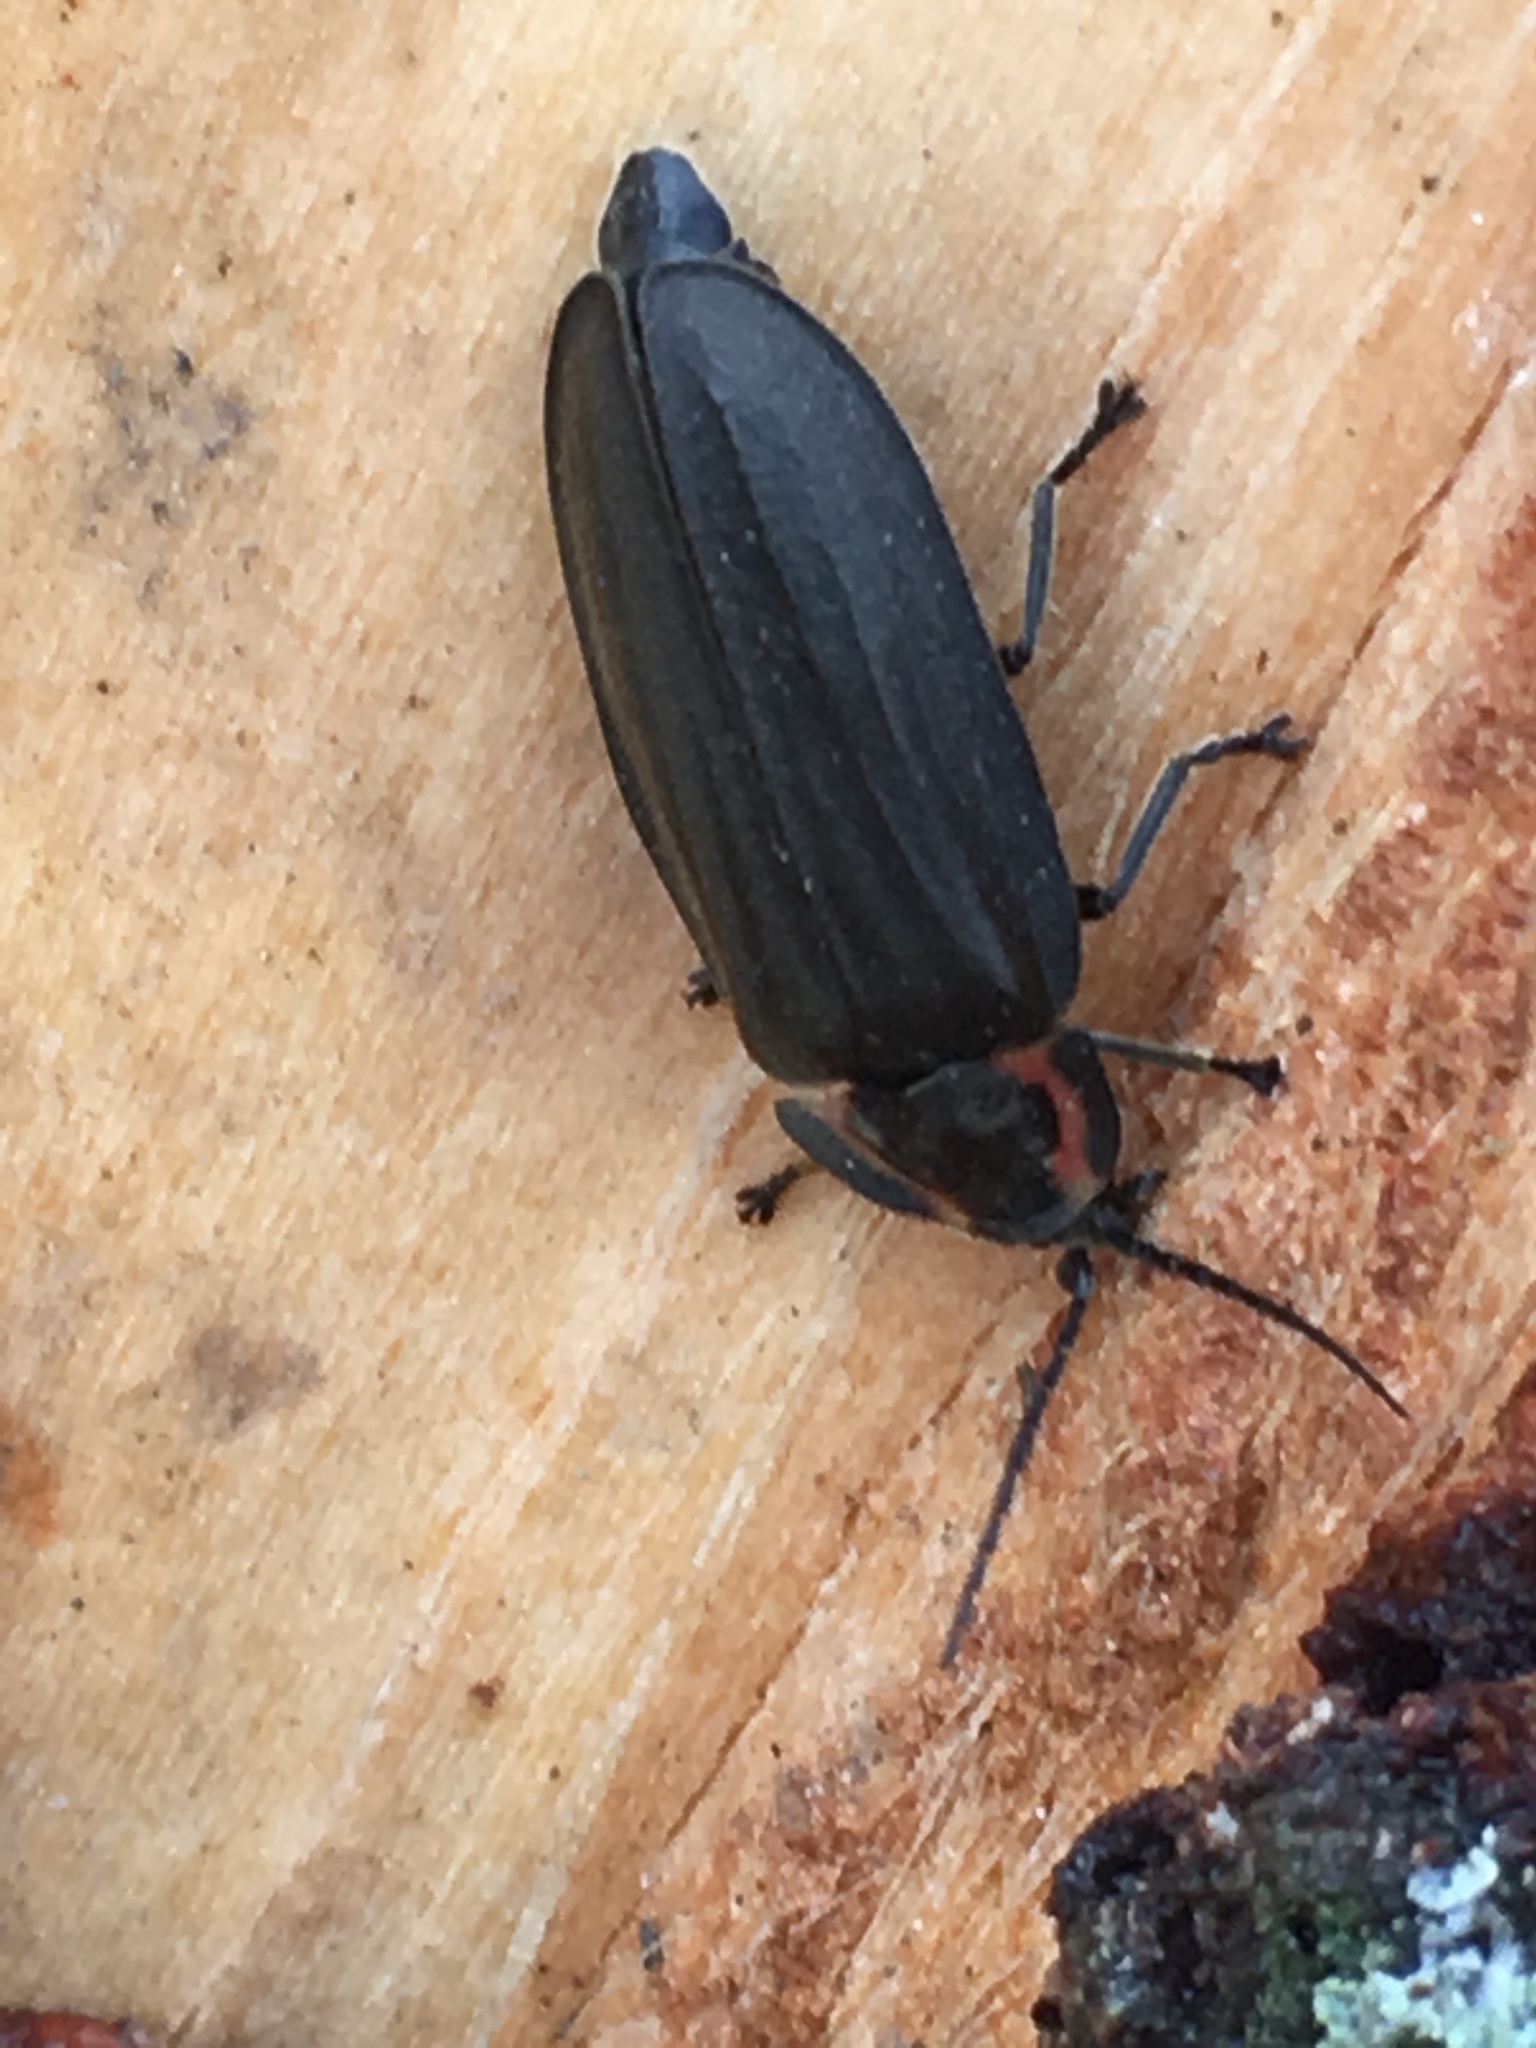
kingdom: Animalia
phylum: Arthropoda
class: Insecta
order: Coleoptera
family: Lampyridae
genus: Photinus
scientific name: Photinus corrusca
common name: Winter firefly
